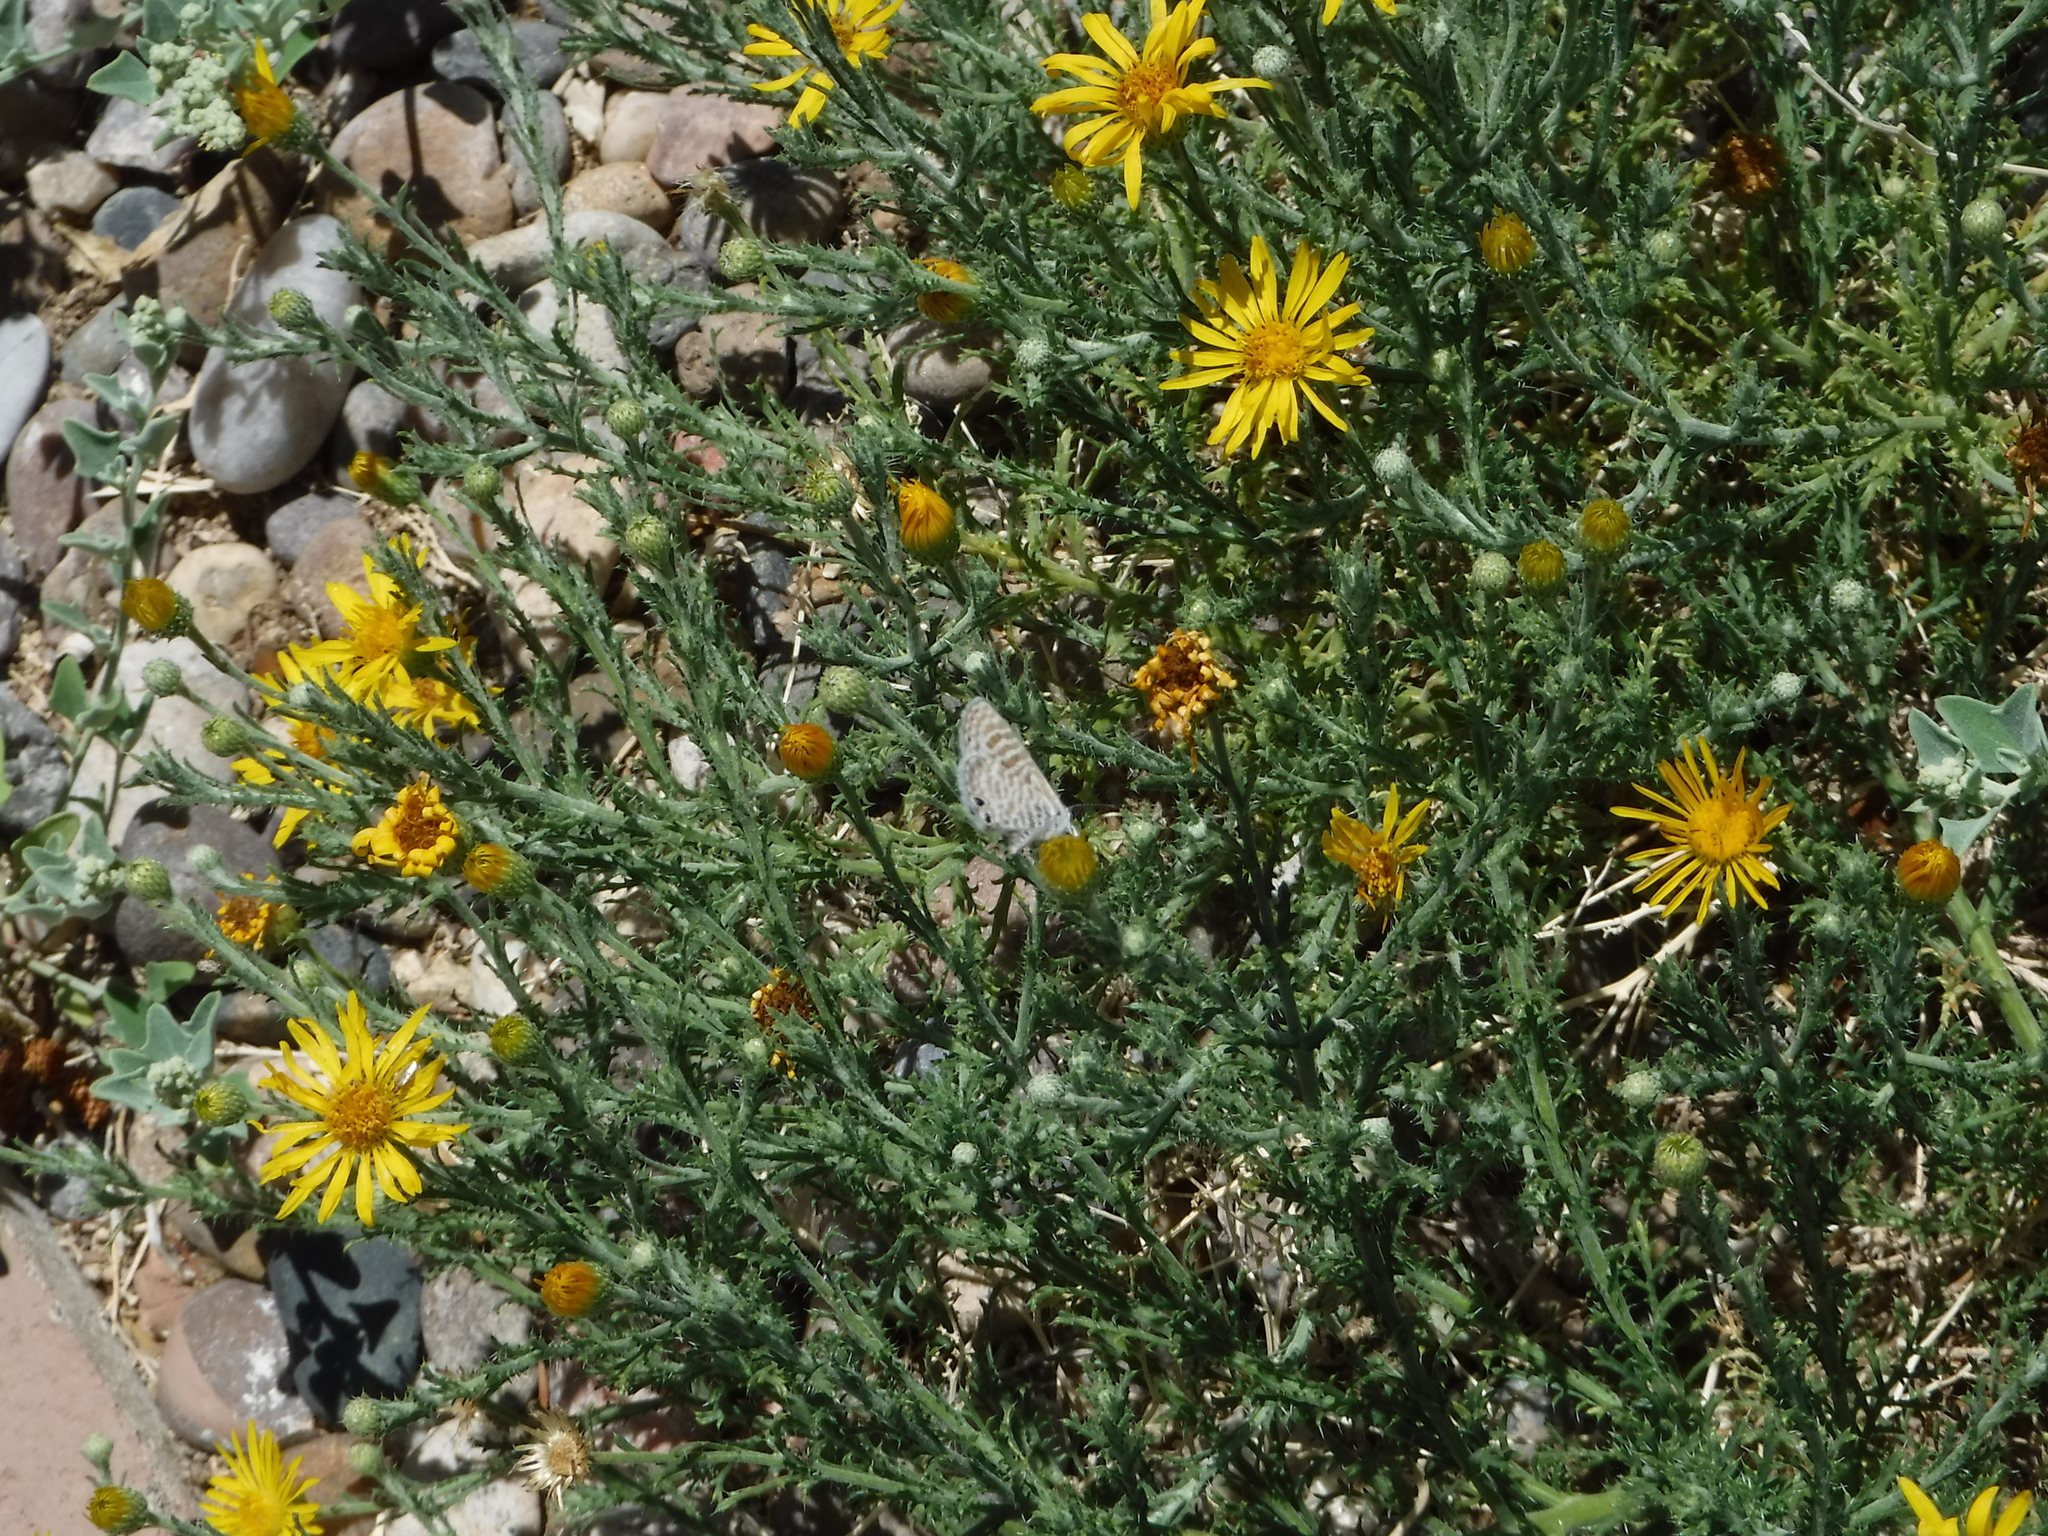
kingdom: Animalia
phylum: Arthropoda
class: Insecta
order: Lepidoptera
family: Lycaenidae
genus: Leptotes
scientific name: Leptotes marina
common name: Marine blue
